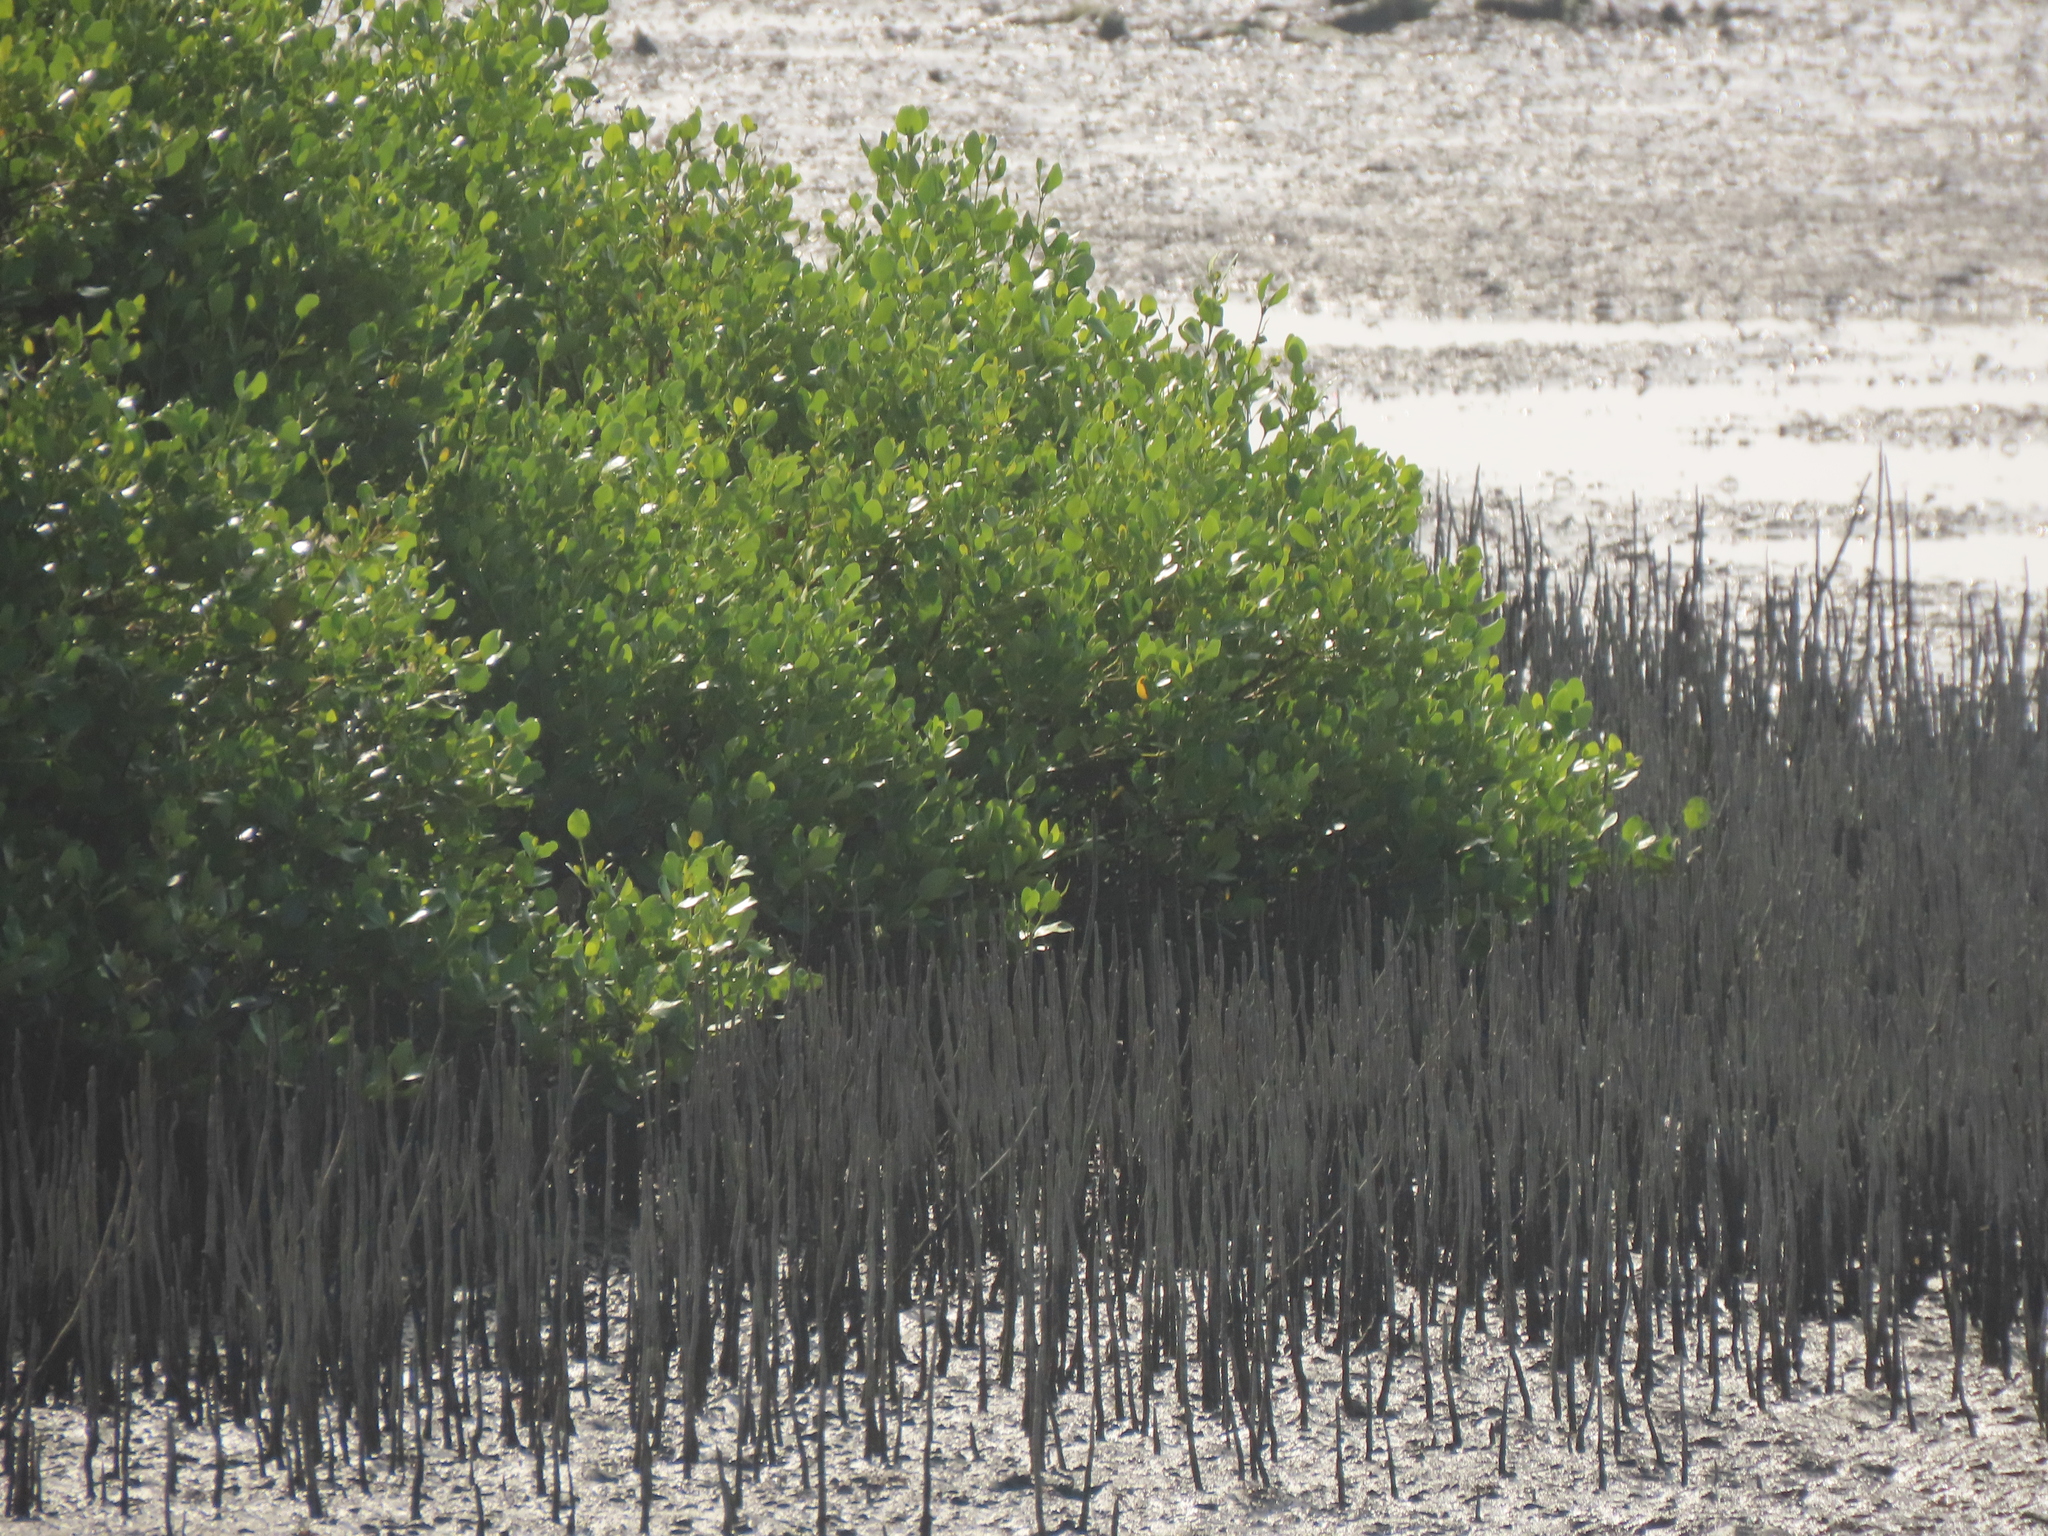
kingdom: Plantae
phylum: Tracheophyta
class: Magnoliopsida
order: Lamiales
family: Acanthaceae
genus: Avicennia
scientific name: Avicennia marina
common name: Gray mangrove
